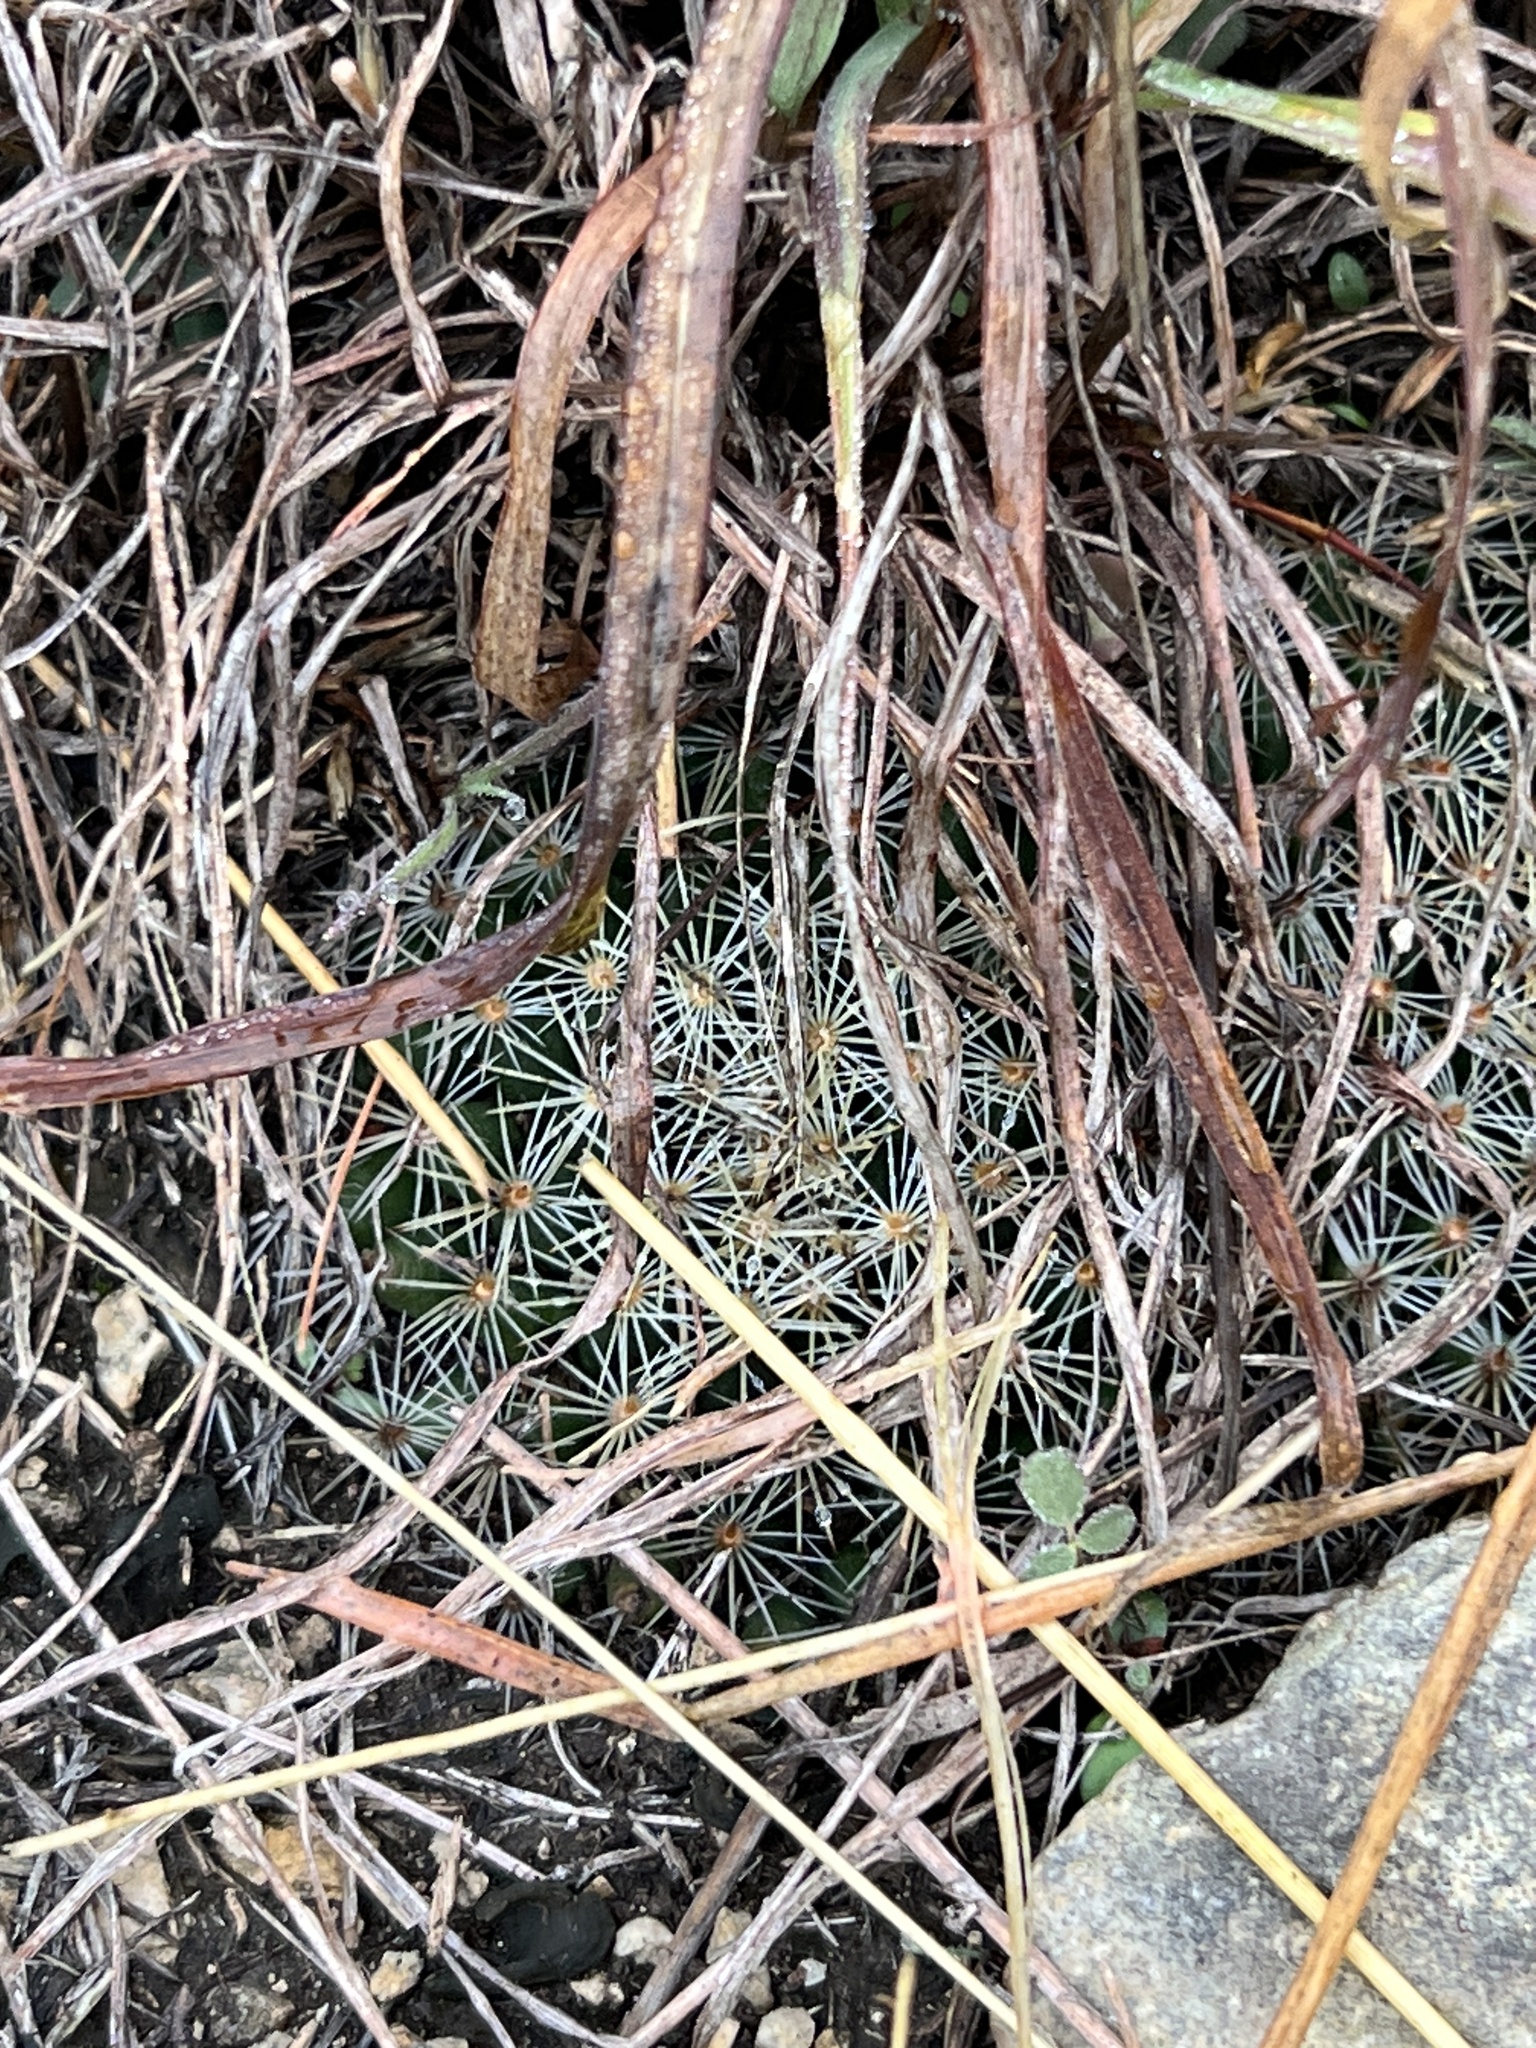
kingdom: Plantae
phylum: Tracheophyta
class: Magnoliopsida
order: Caryophyllales
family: Cactaceae
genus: Mammillaria
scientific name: Mammillaria heyderi
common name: Little nipple cactus
